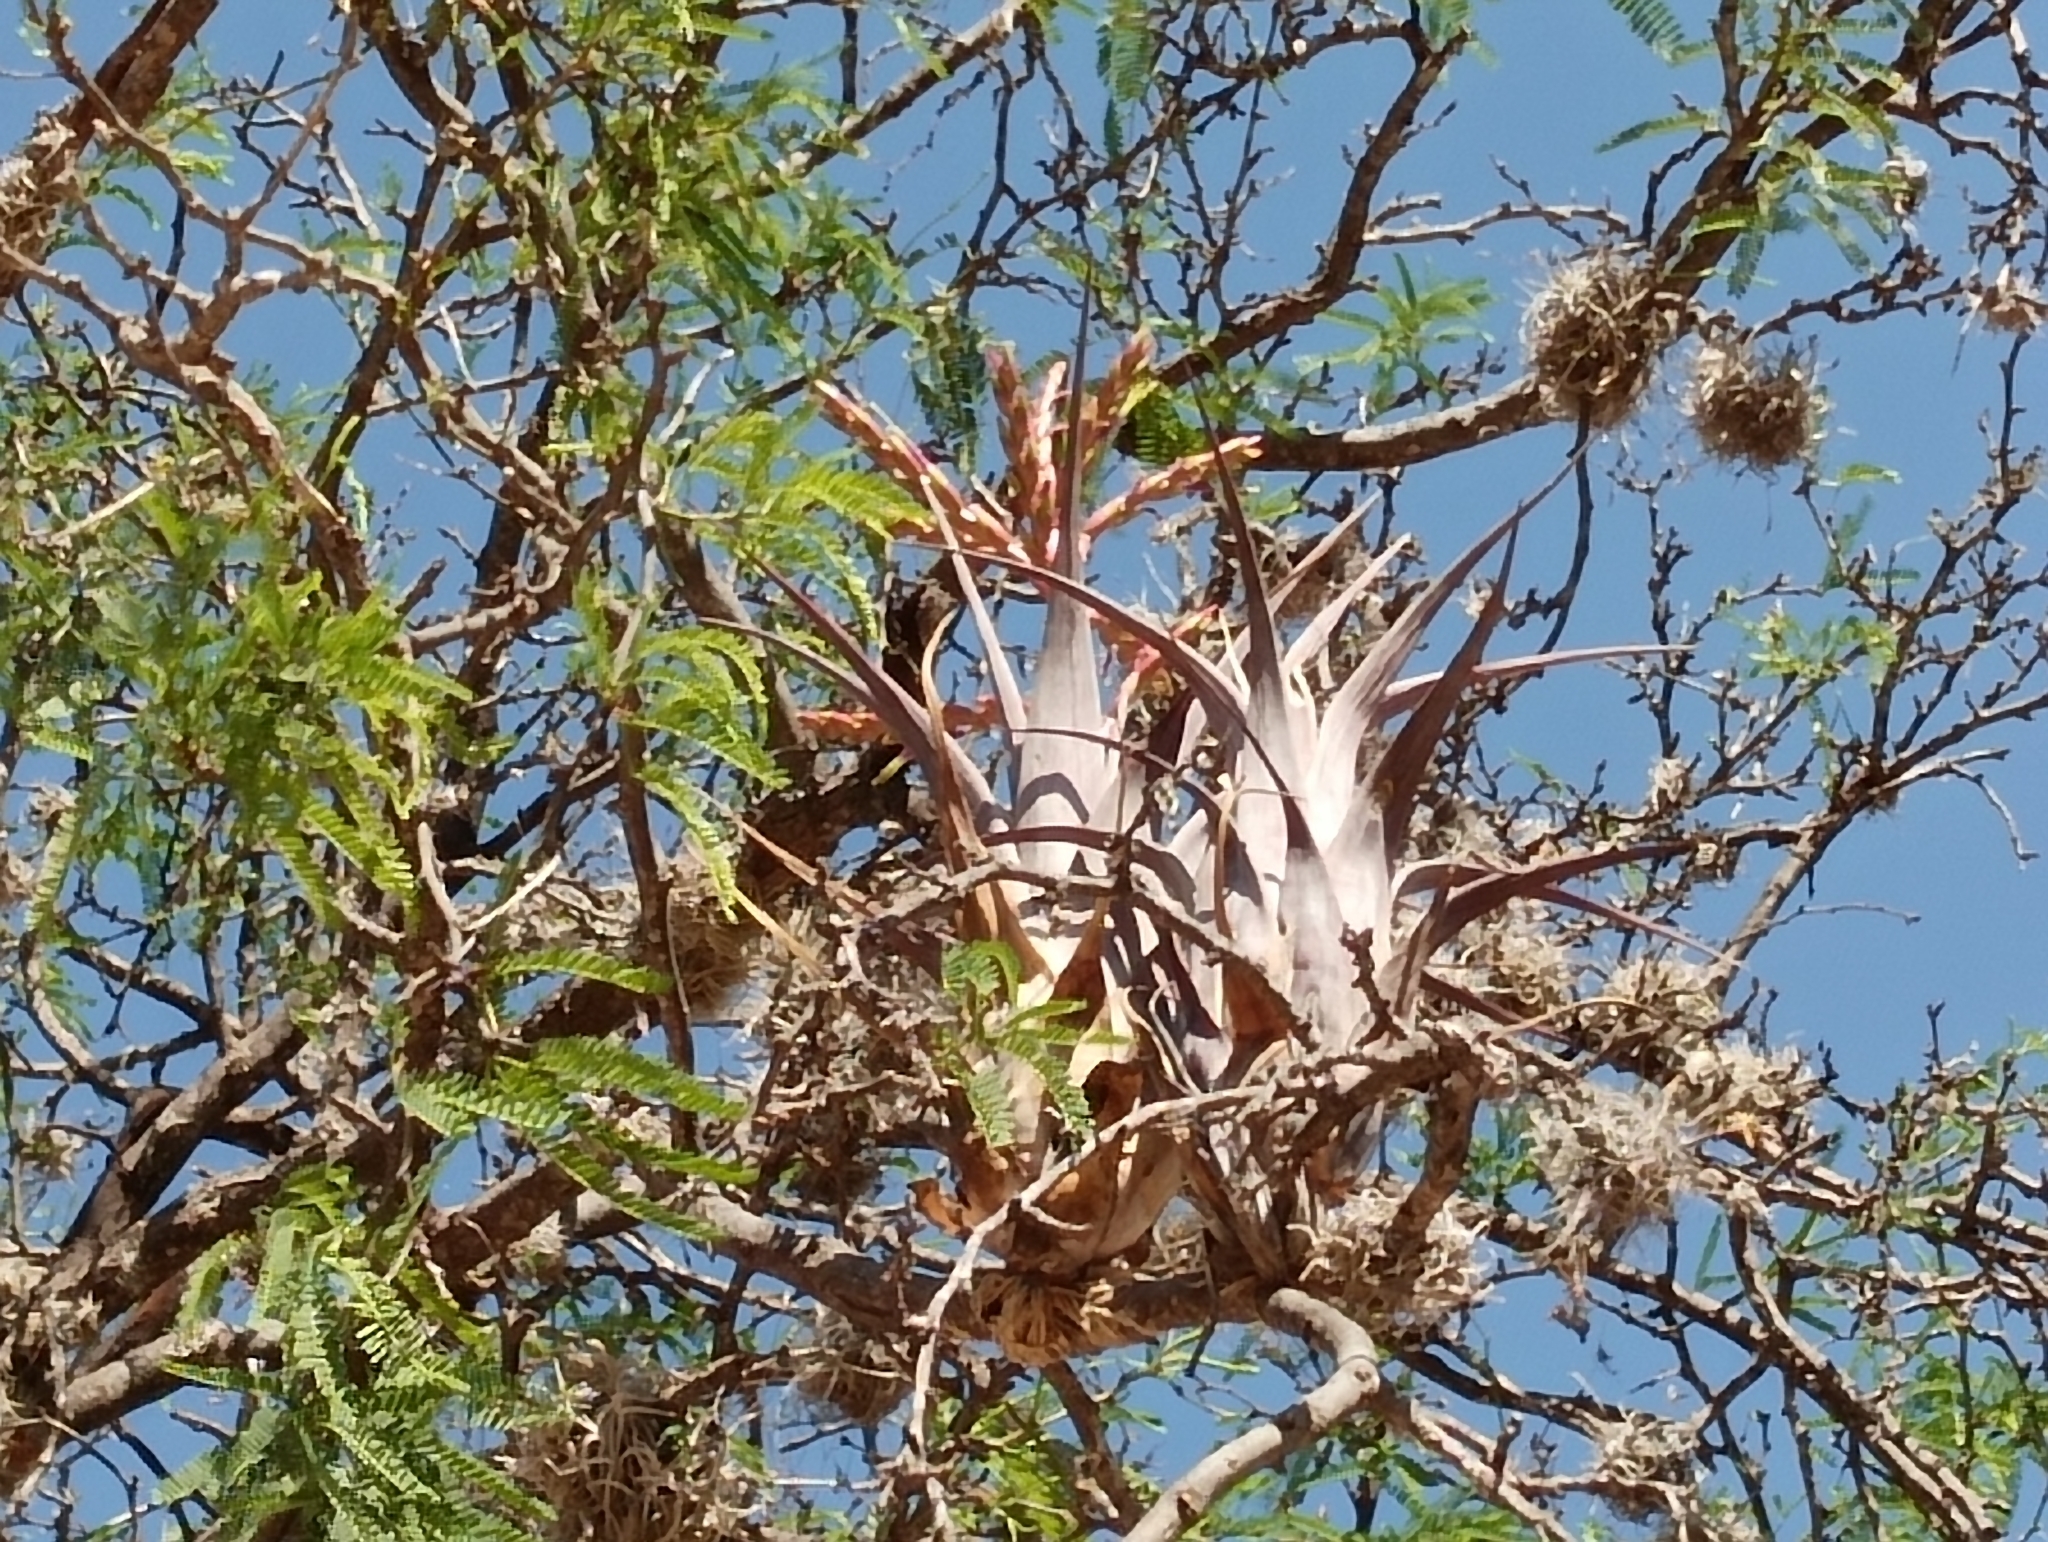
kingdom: Plantae
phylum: Tracheophyta
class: Liliopsida
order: Poales
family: Bromeliaceae
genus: Tillandsia
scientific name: Tillandsia tehuacana
